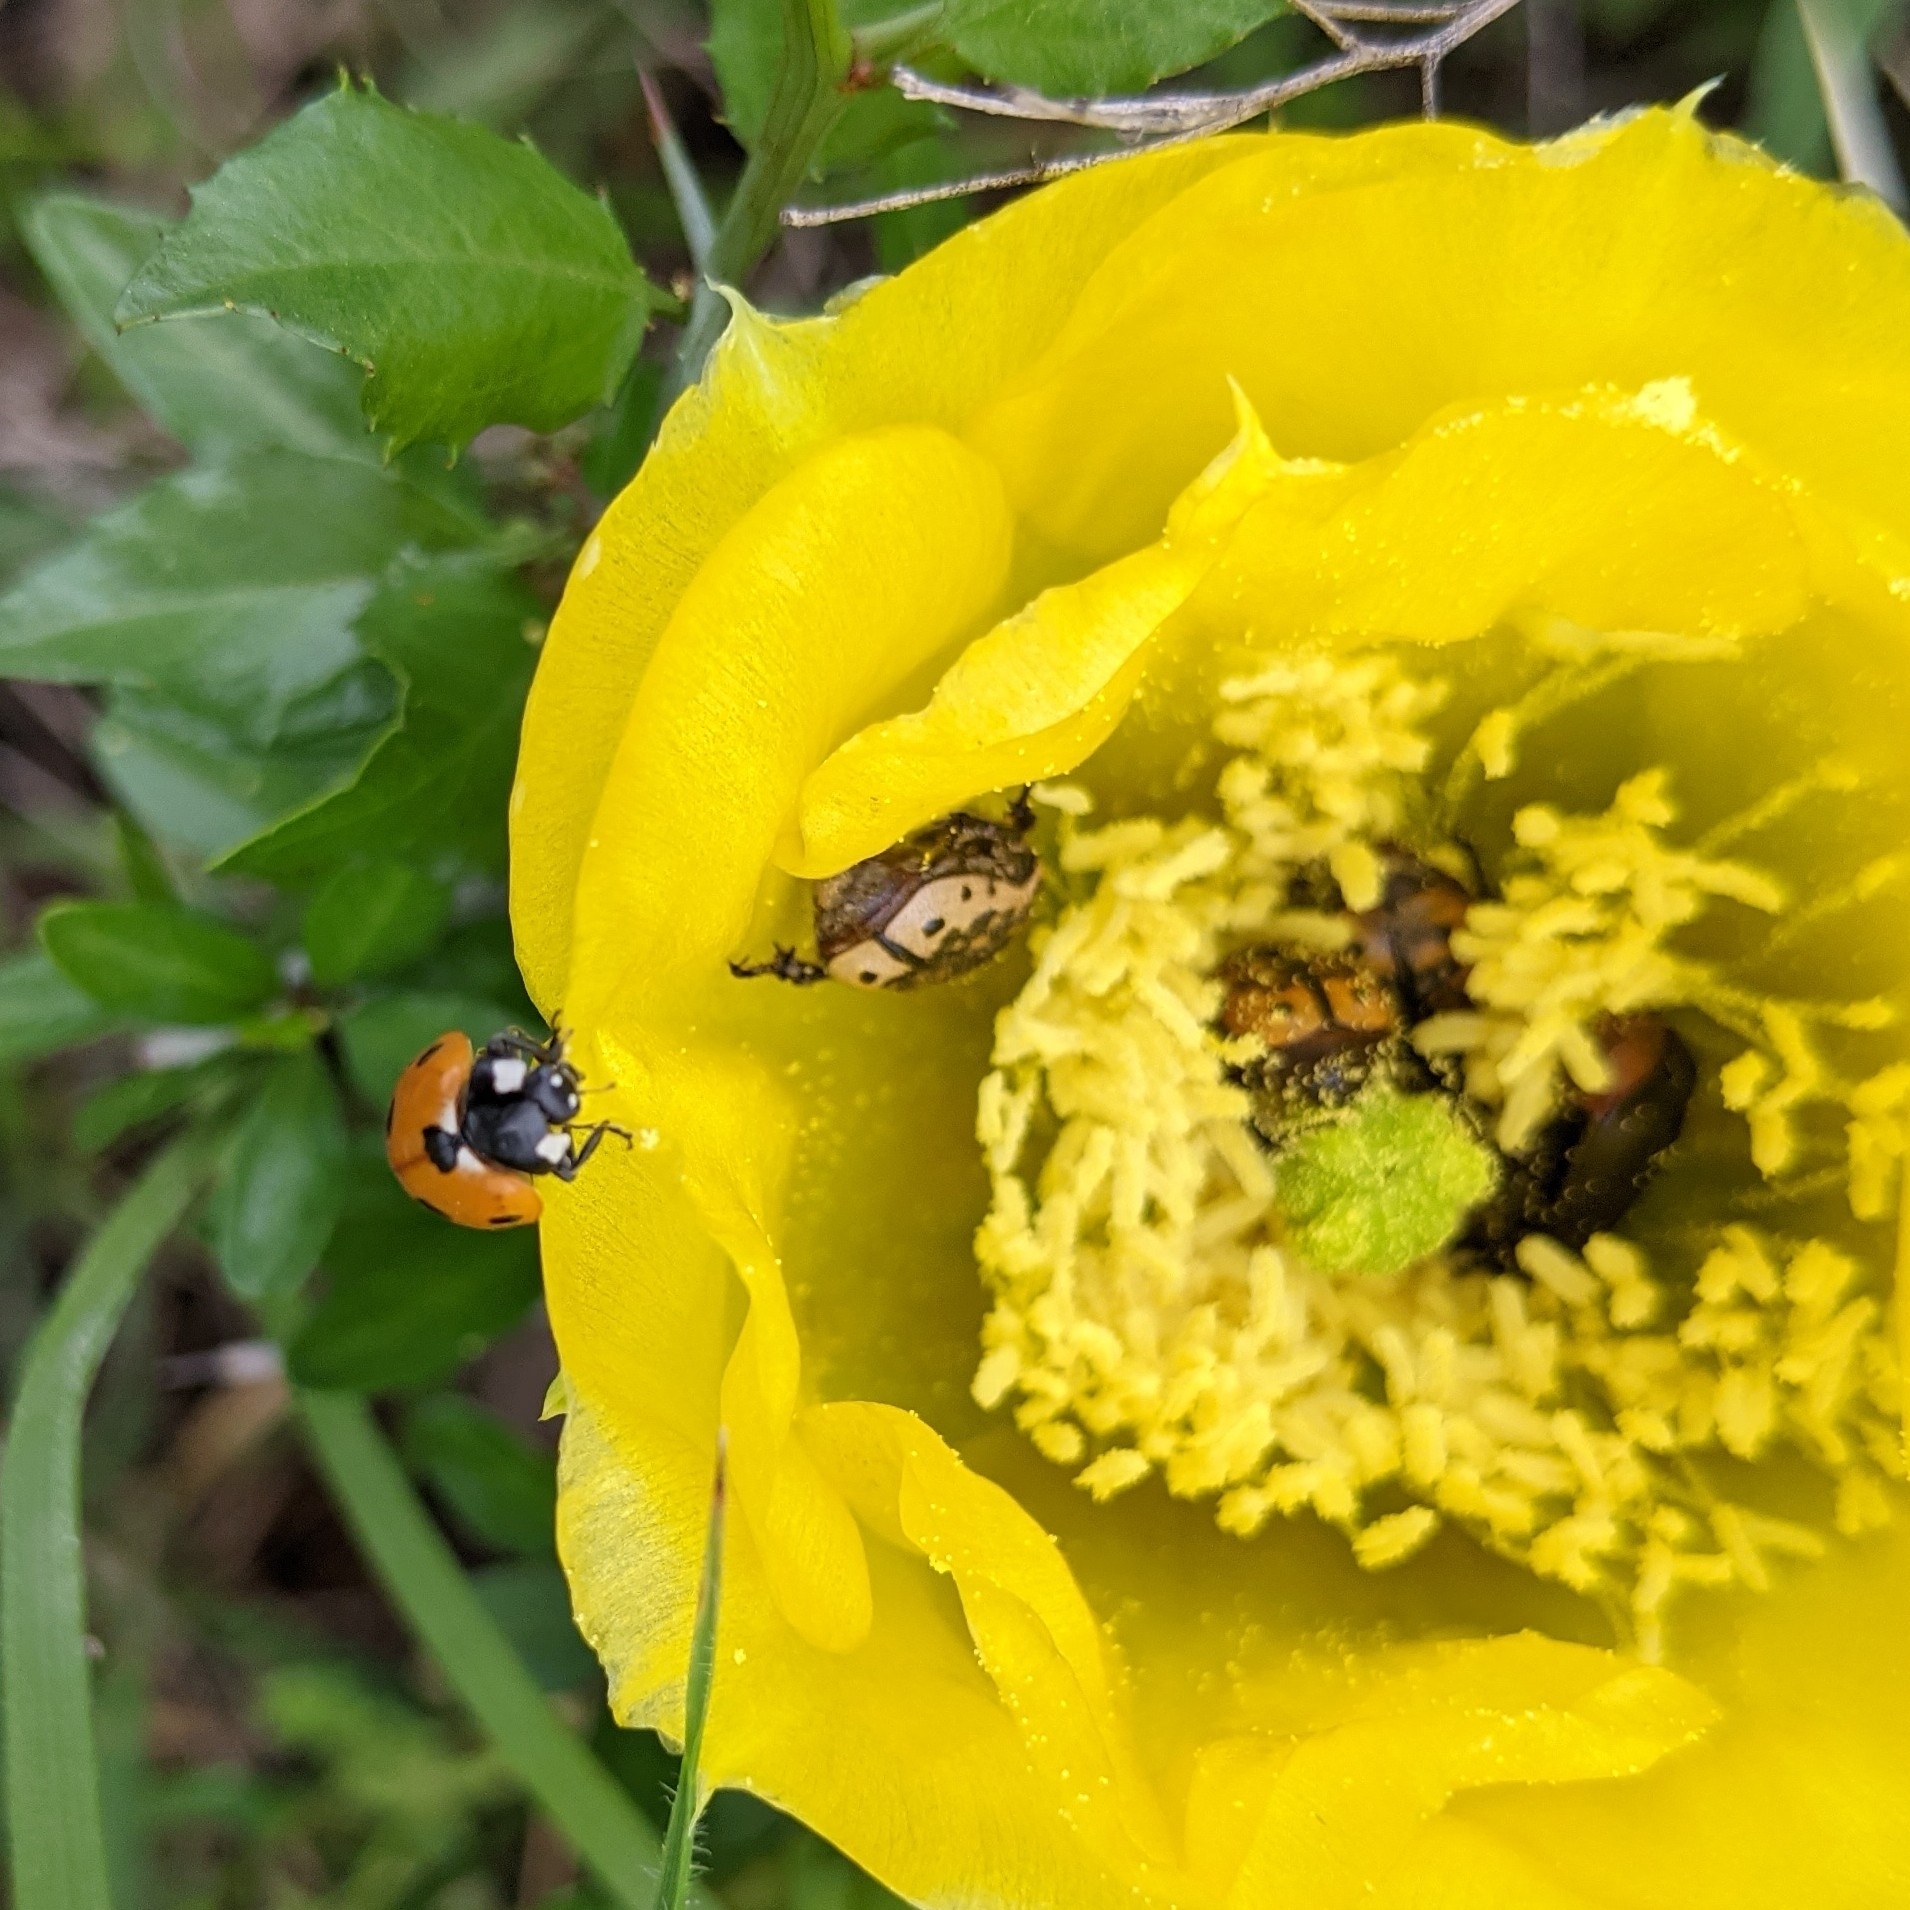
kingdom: Animalia
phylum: Arthropoda
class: Insecta
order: Coleoptera
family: Scarabaeidae
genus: Euphoria
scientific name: Euphoria kernii
